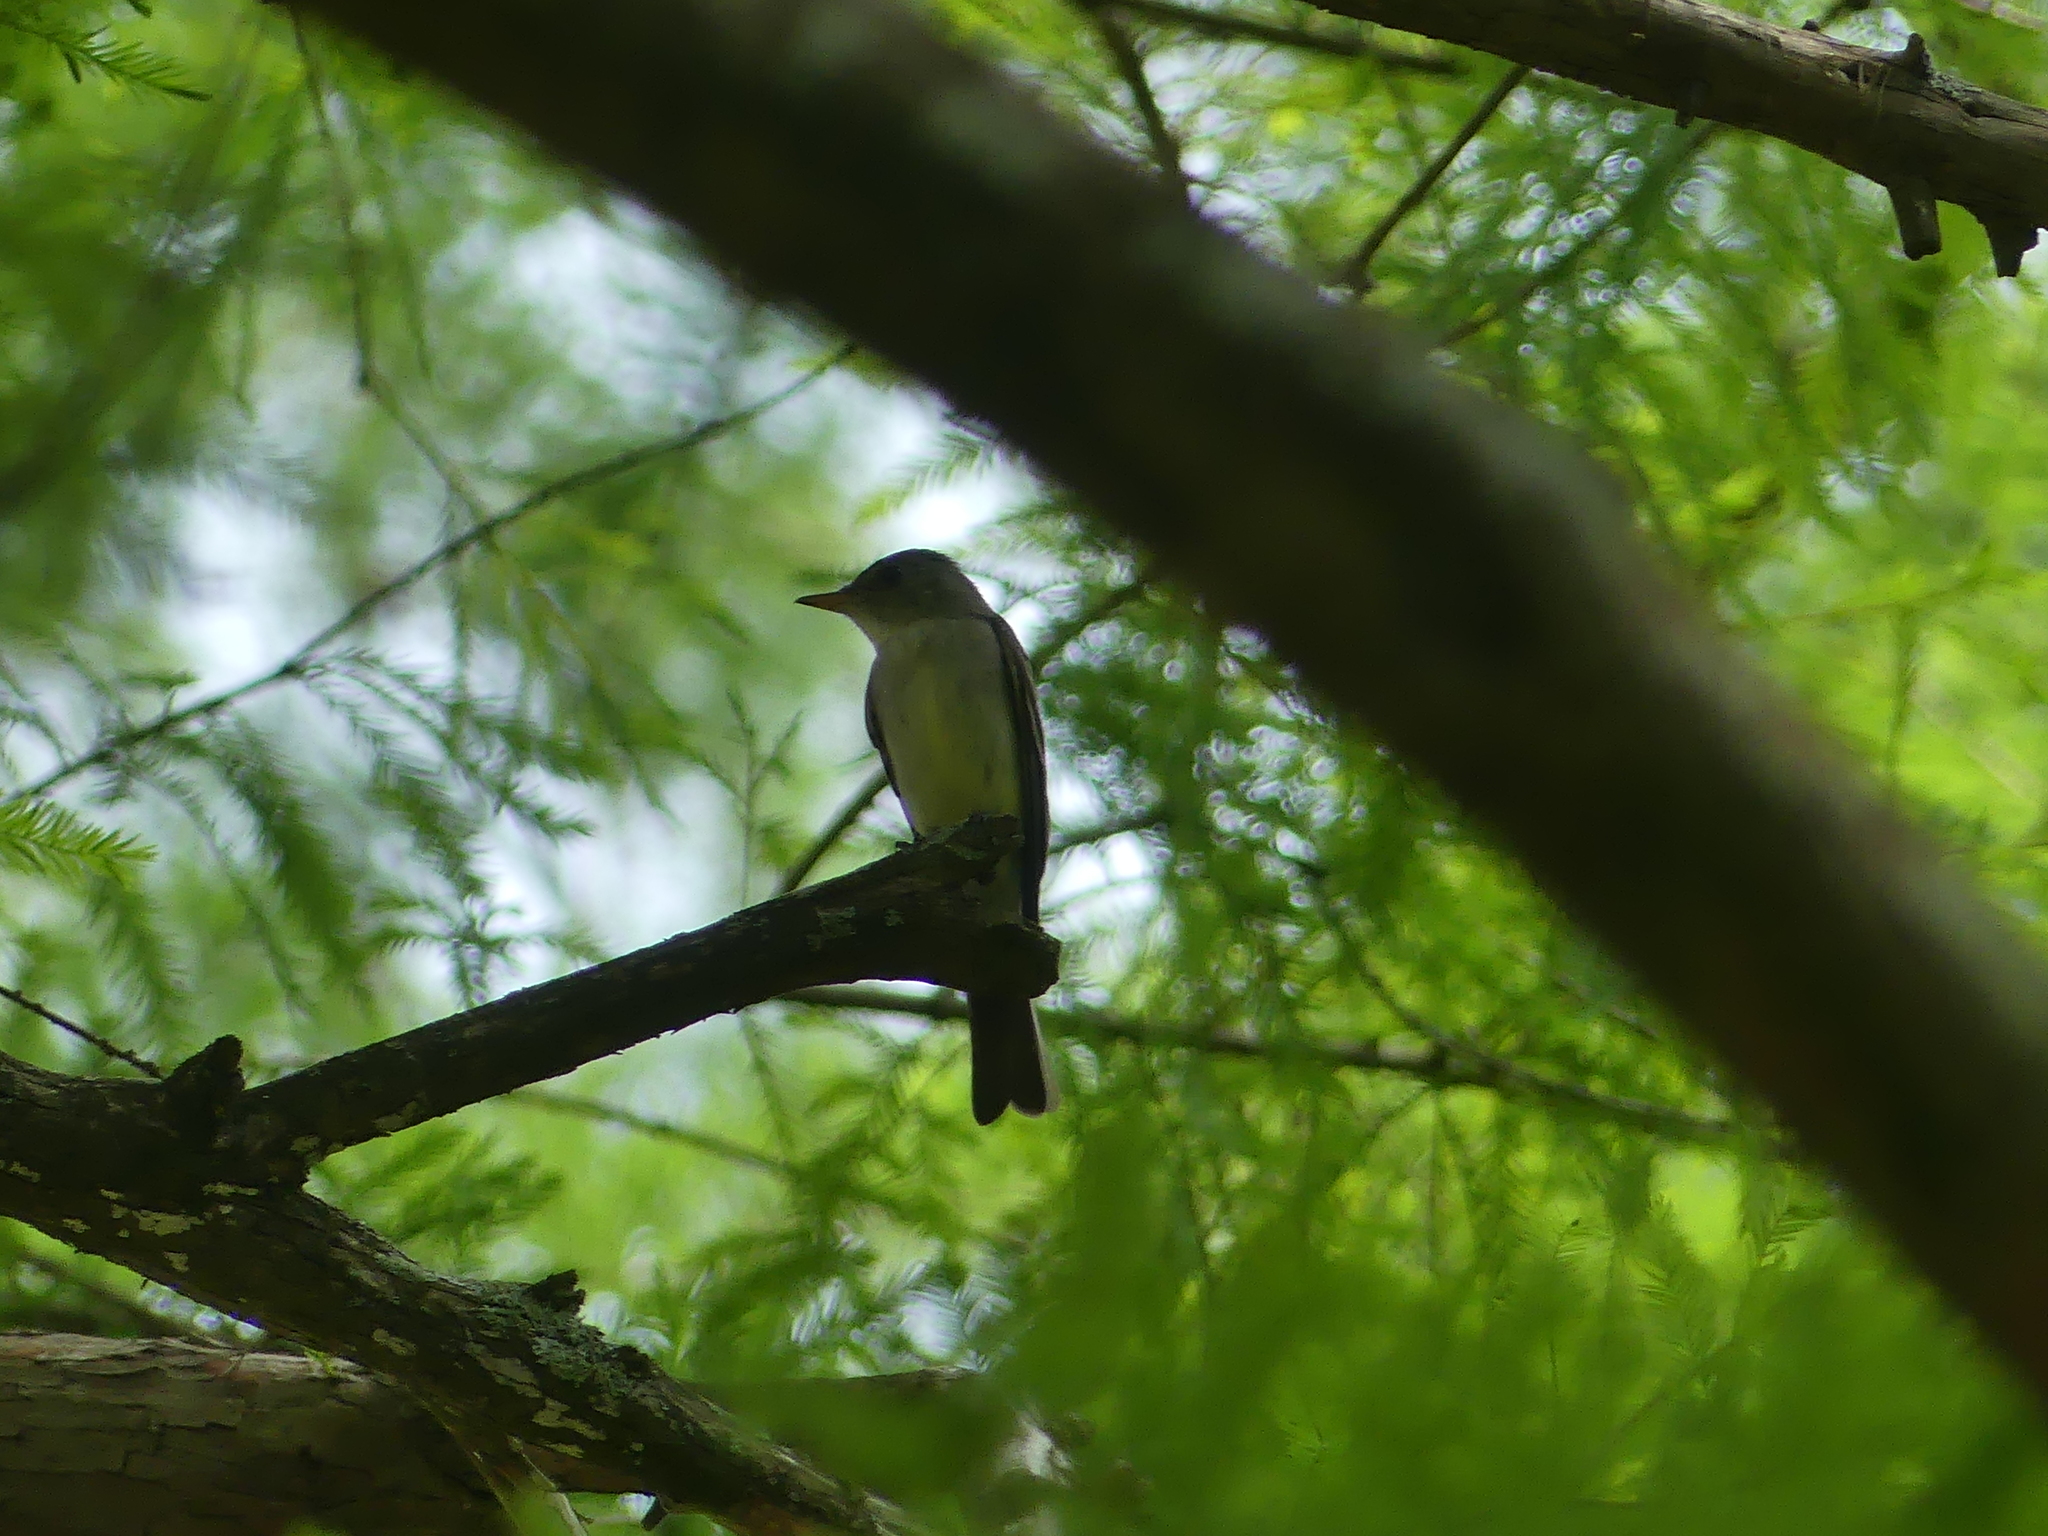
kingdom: Animalia
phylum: Chordata
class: Aves
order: Passeriformes
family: Tyrannidae
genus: Contopus
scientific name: Contopus virens
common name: Eastern wood-pewee
